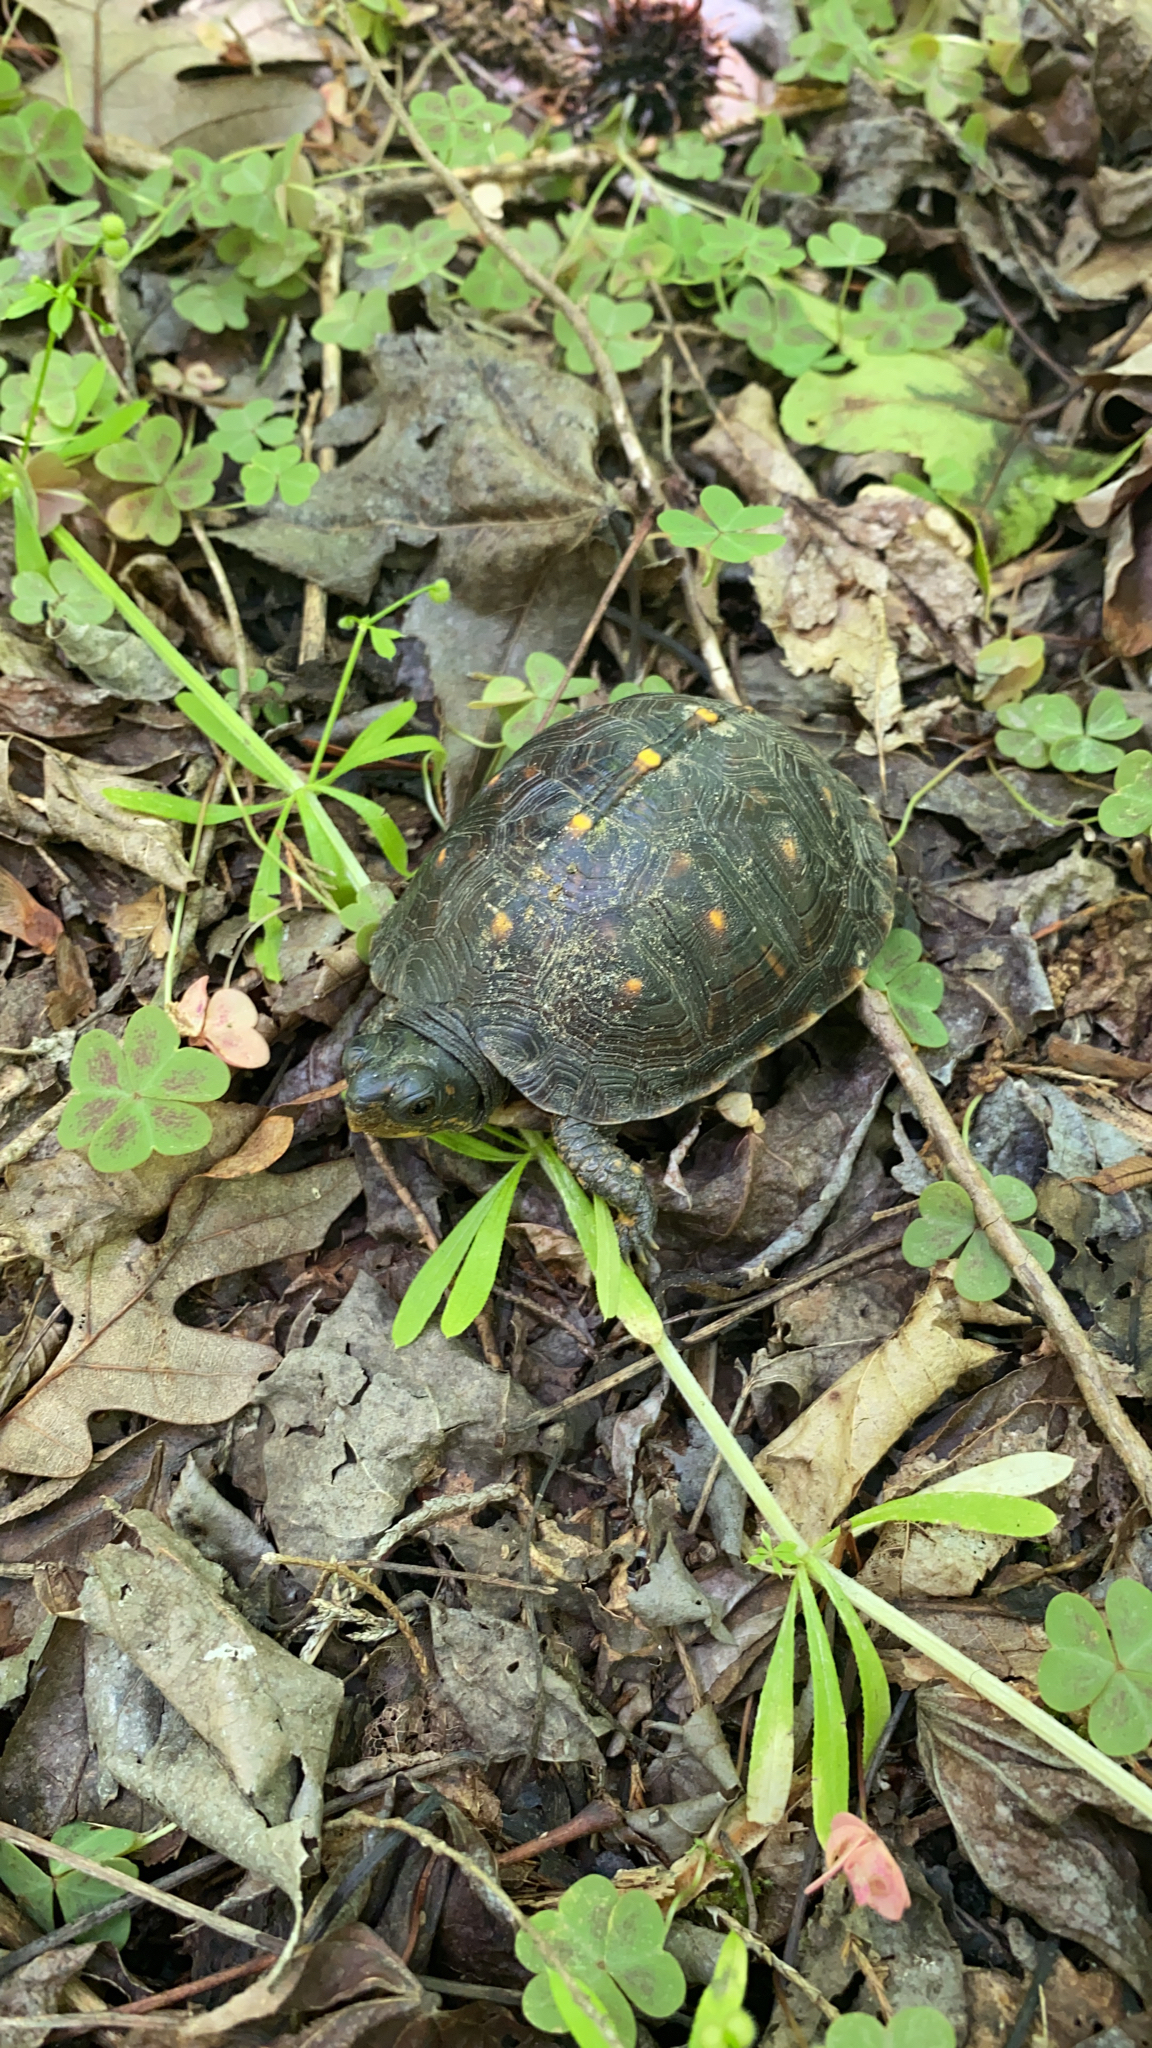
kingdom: Animalia
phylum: Chordata
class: Testudines
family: Emydidae
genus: Terrapene
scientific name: Terrapene carolina
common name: Common box turtle
